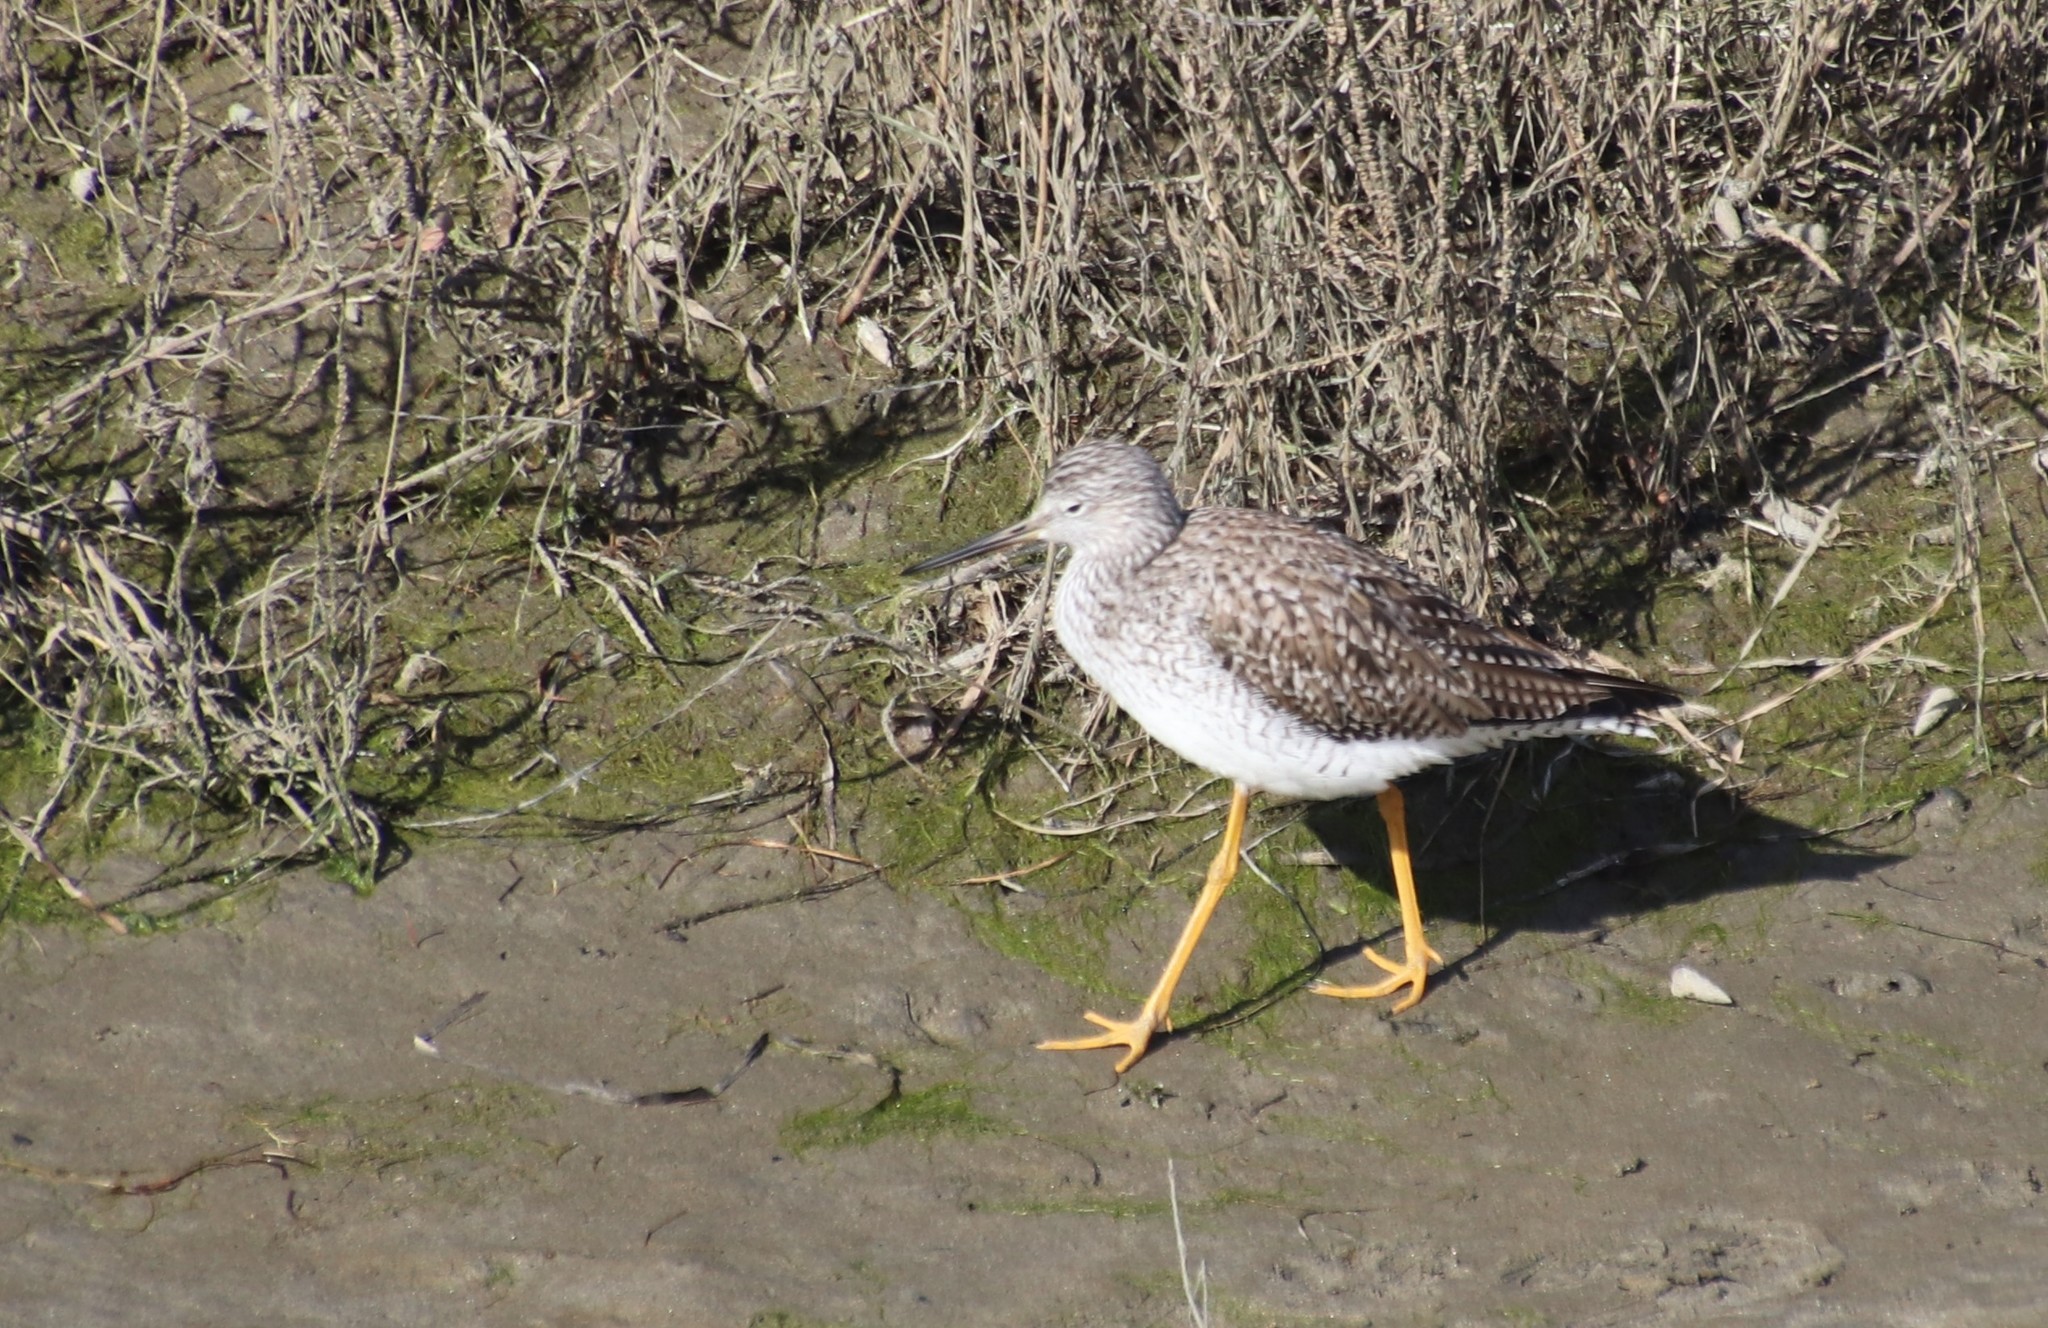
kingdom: Animalia
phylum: Chordata
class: Aves
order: Charadriiformes
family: Scolopacidae
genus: Tringa
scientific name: Tringa melanoleuca
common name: Greater yellowlegs
